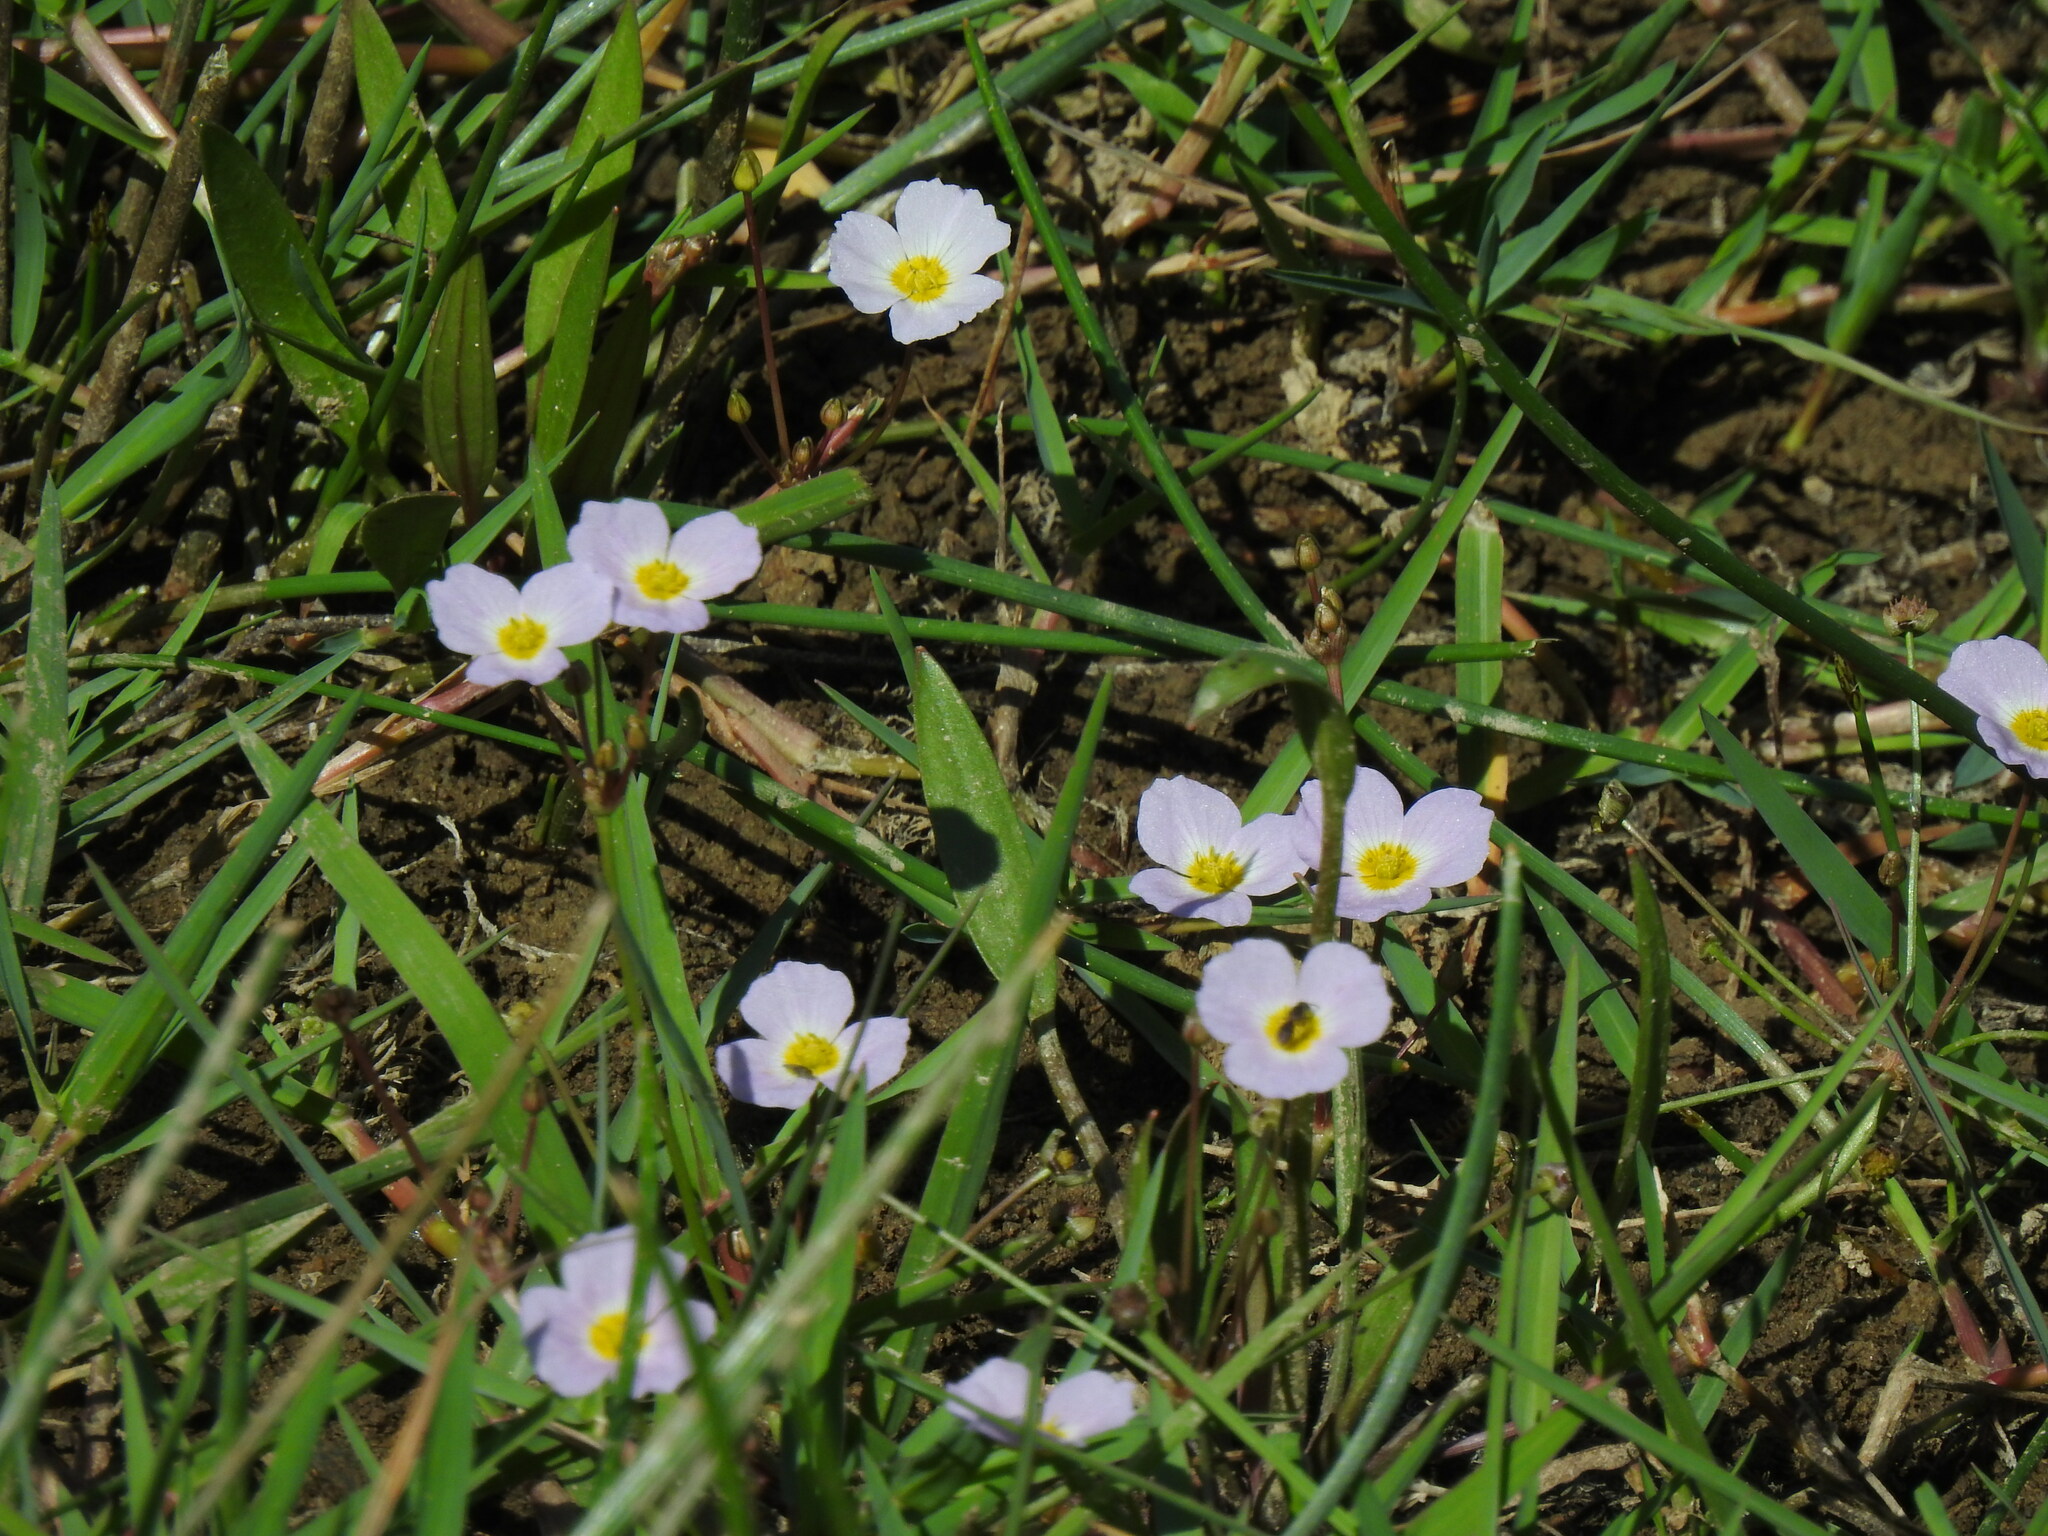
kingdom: Plantae
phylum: Tracheophyta
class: Liliopsida
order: Alismatales
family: Alismataceae
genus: Baldellia
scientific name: Baldellia repens
